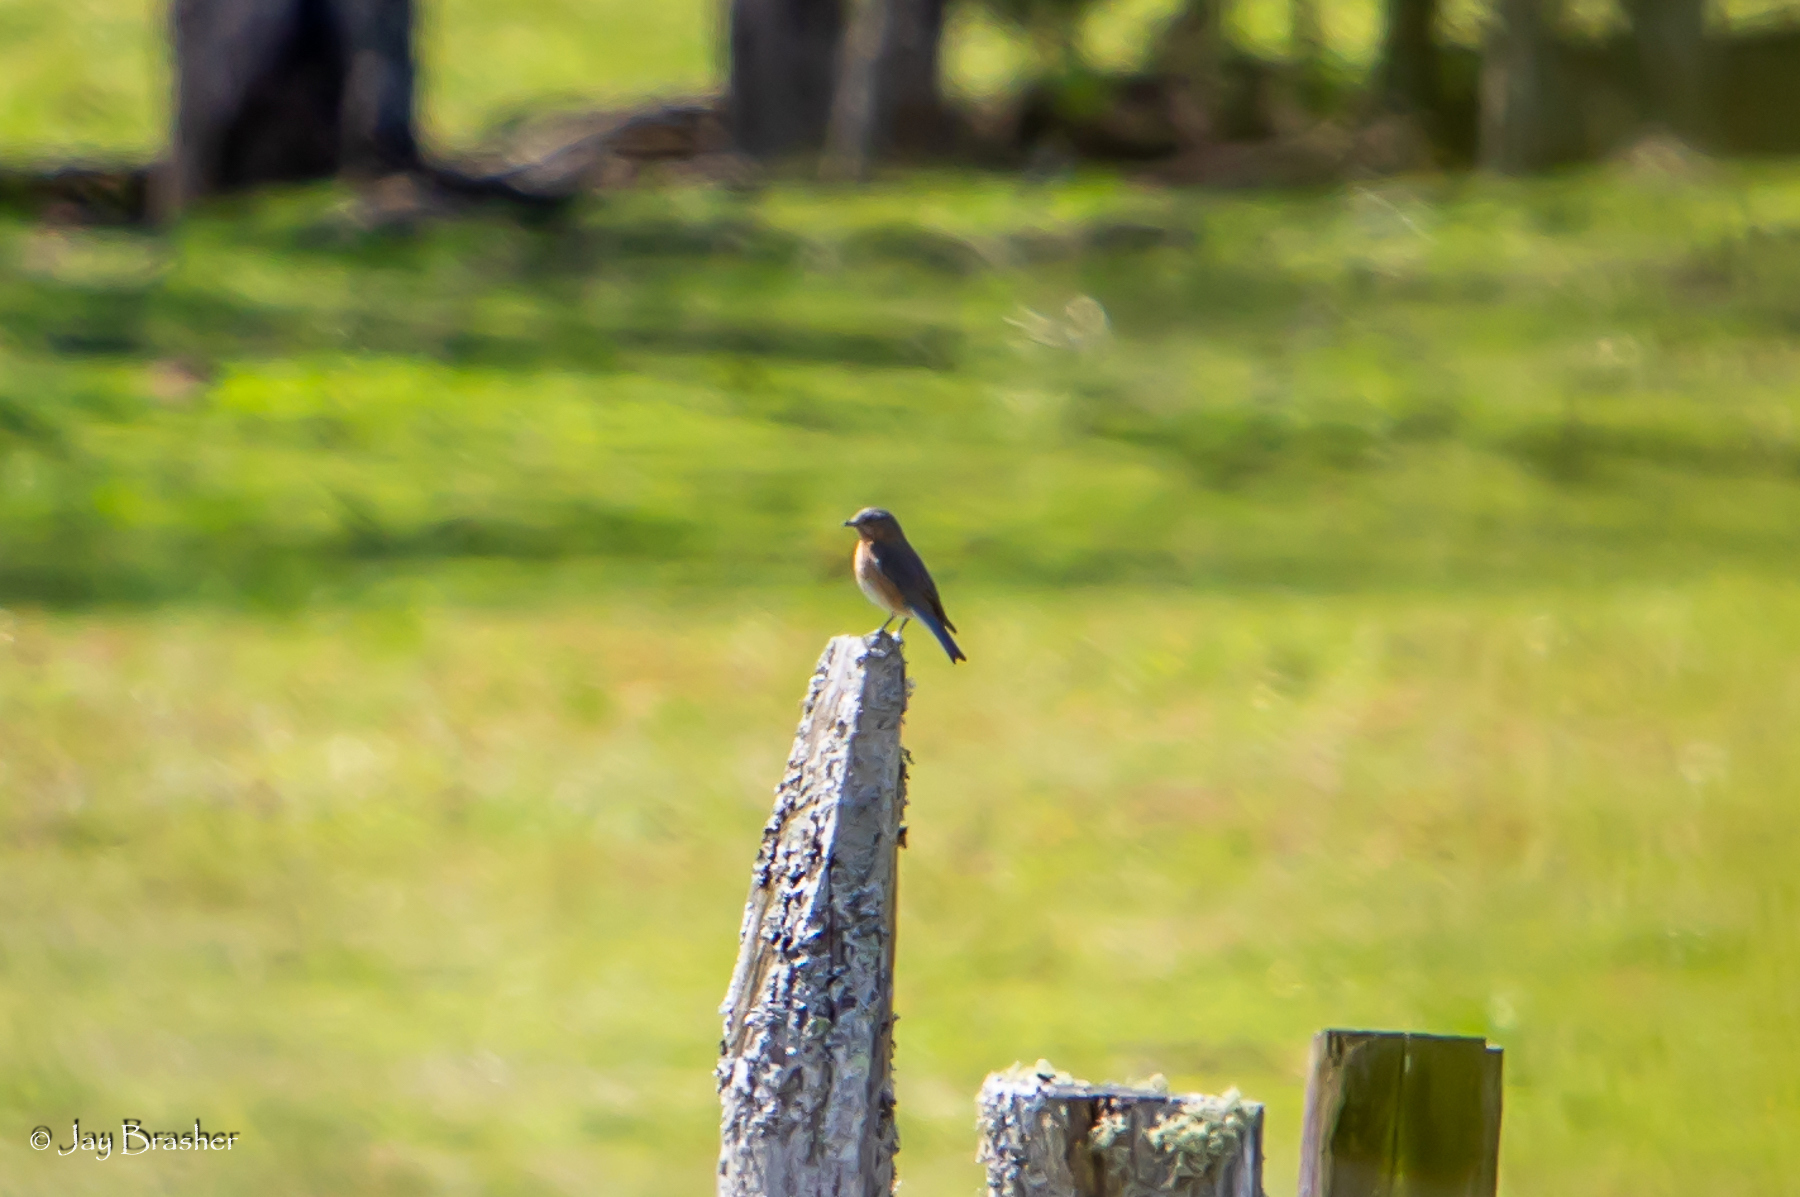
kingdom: Animalia
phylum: Chordata
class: Aves
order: Passeriformes
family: Turdidae
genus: Sialia
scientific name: Sialia sialis
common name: Eastern bluebird
